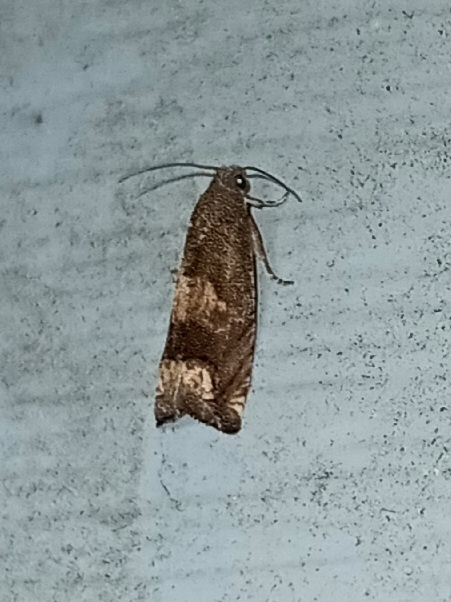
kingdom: Animalia
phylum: Arthropoda
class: Insecta
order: Lepidoptera
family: Tortricidae
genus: Epiblema
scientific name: Epiblema strenuana
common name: Ragweed borer moth
